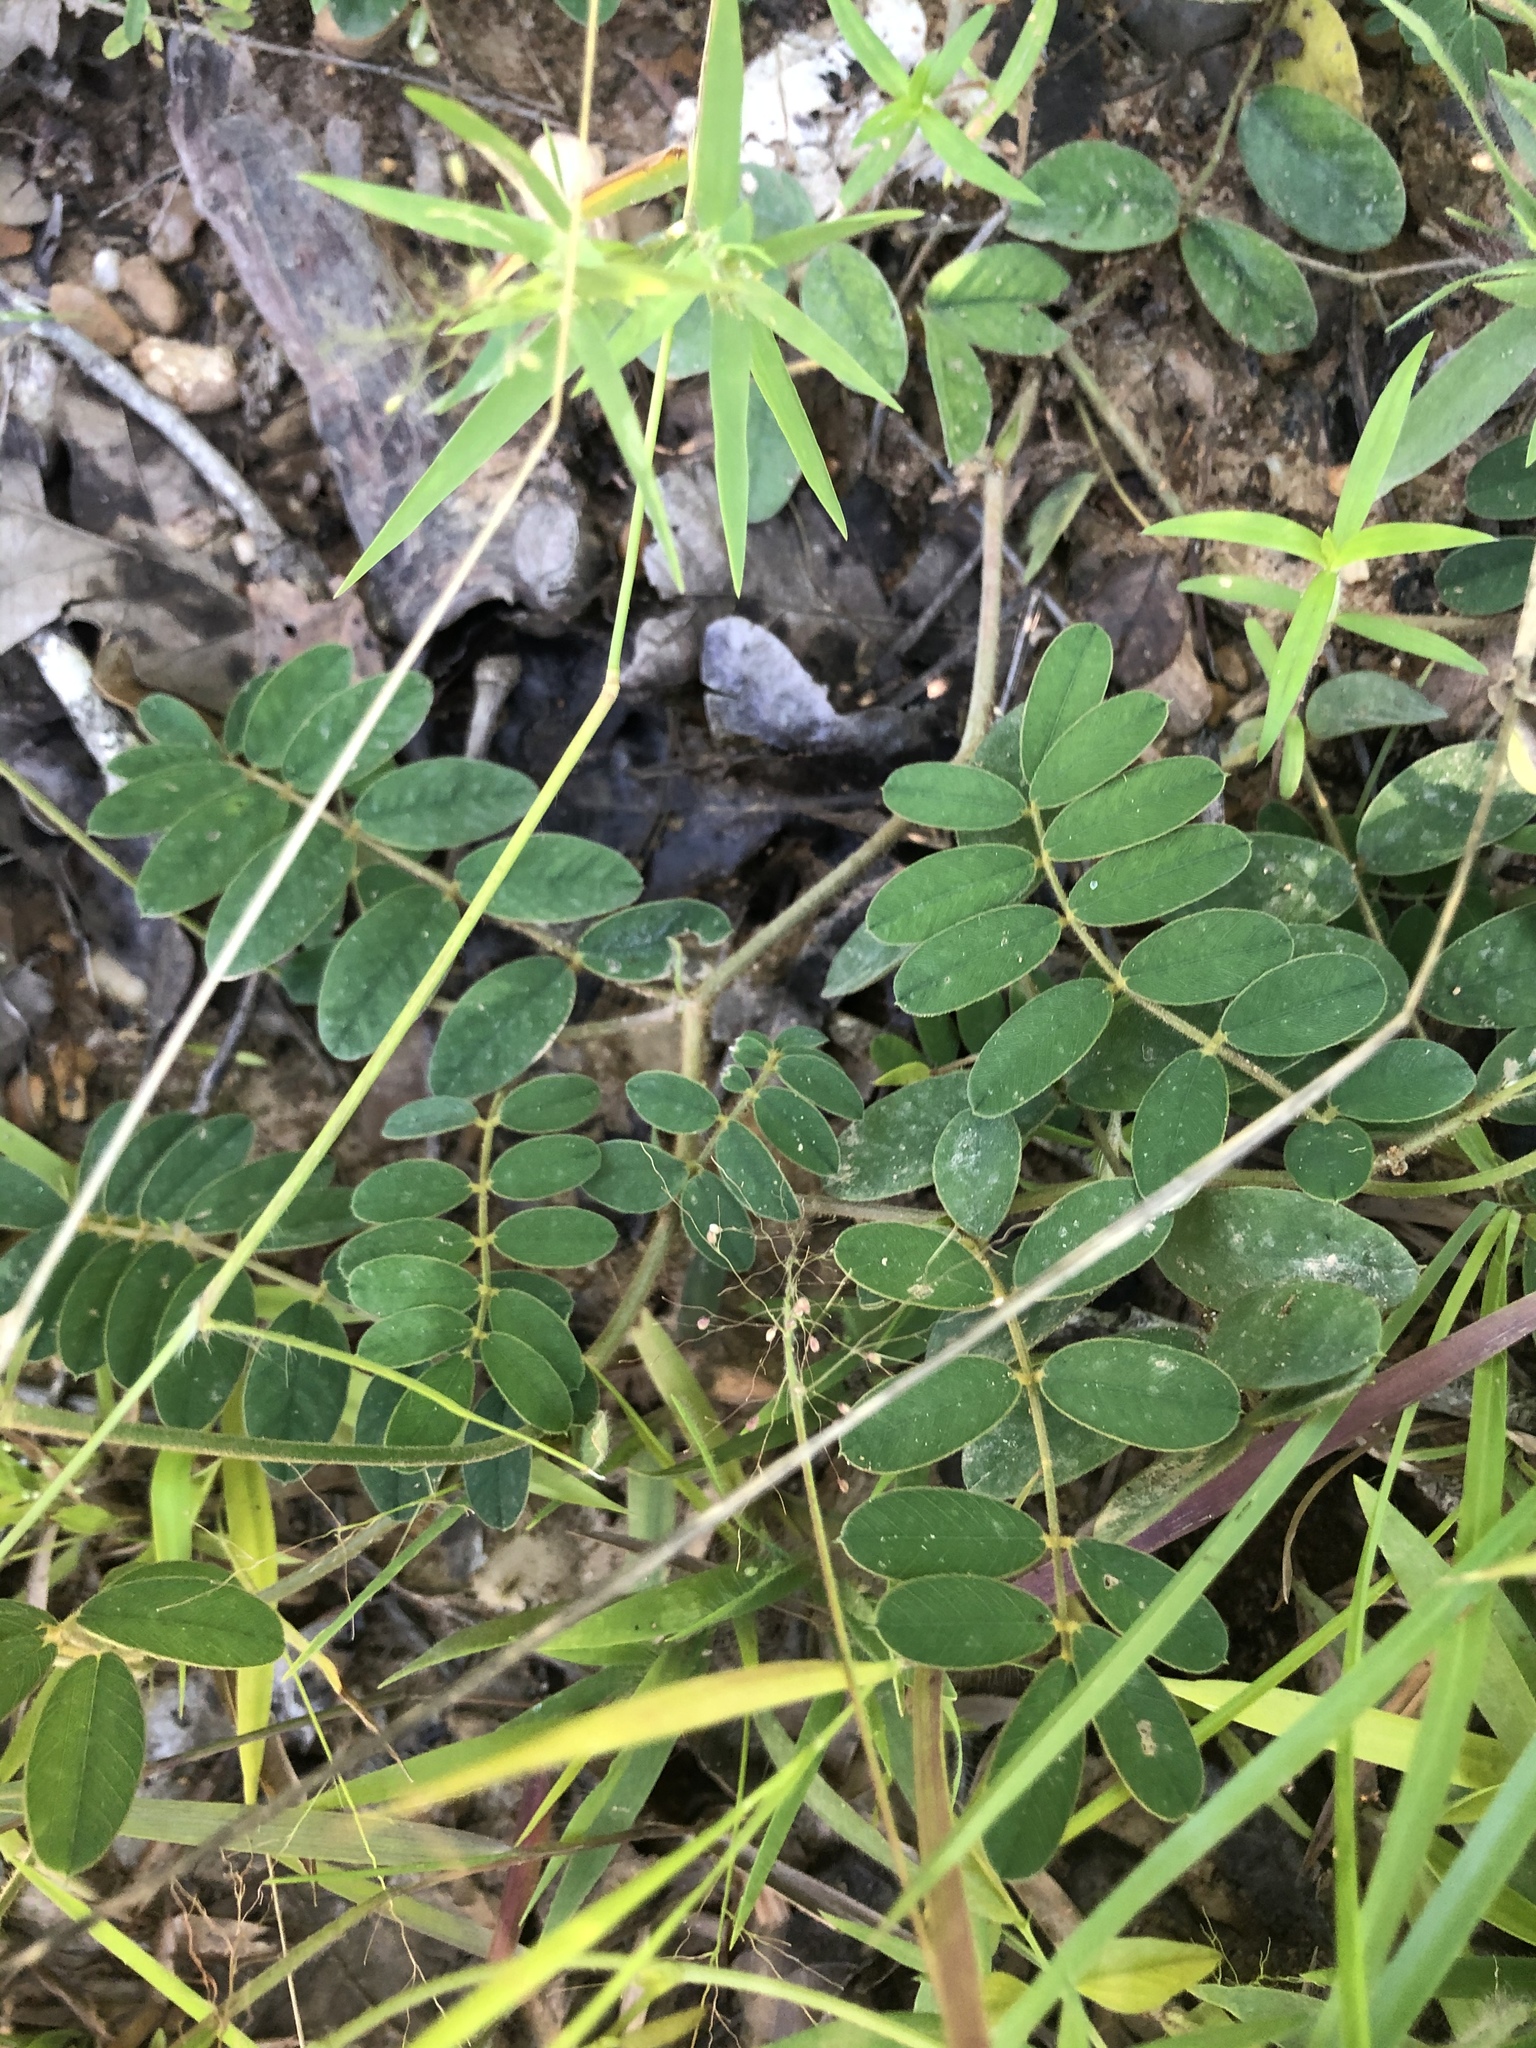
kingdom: Plantae
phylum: Tracheophyta
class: Magnoliopsida
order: Fabales
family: Fabaceae
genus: Tephrosia
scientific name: Tephrosia spicata
